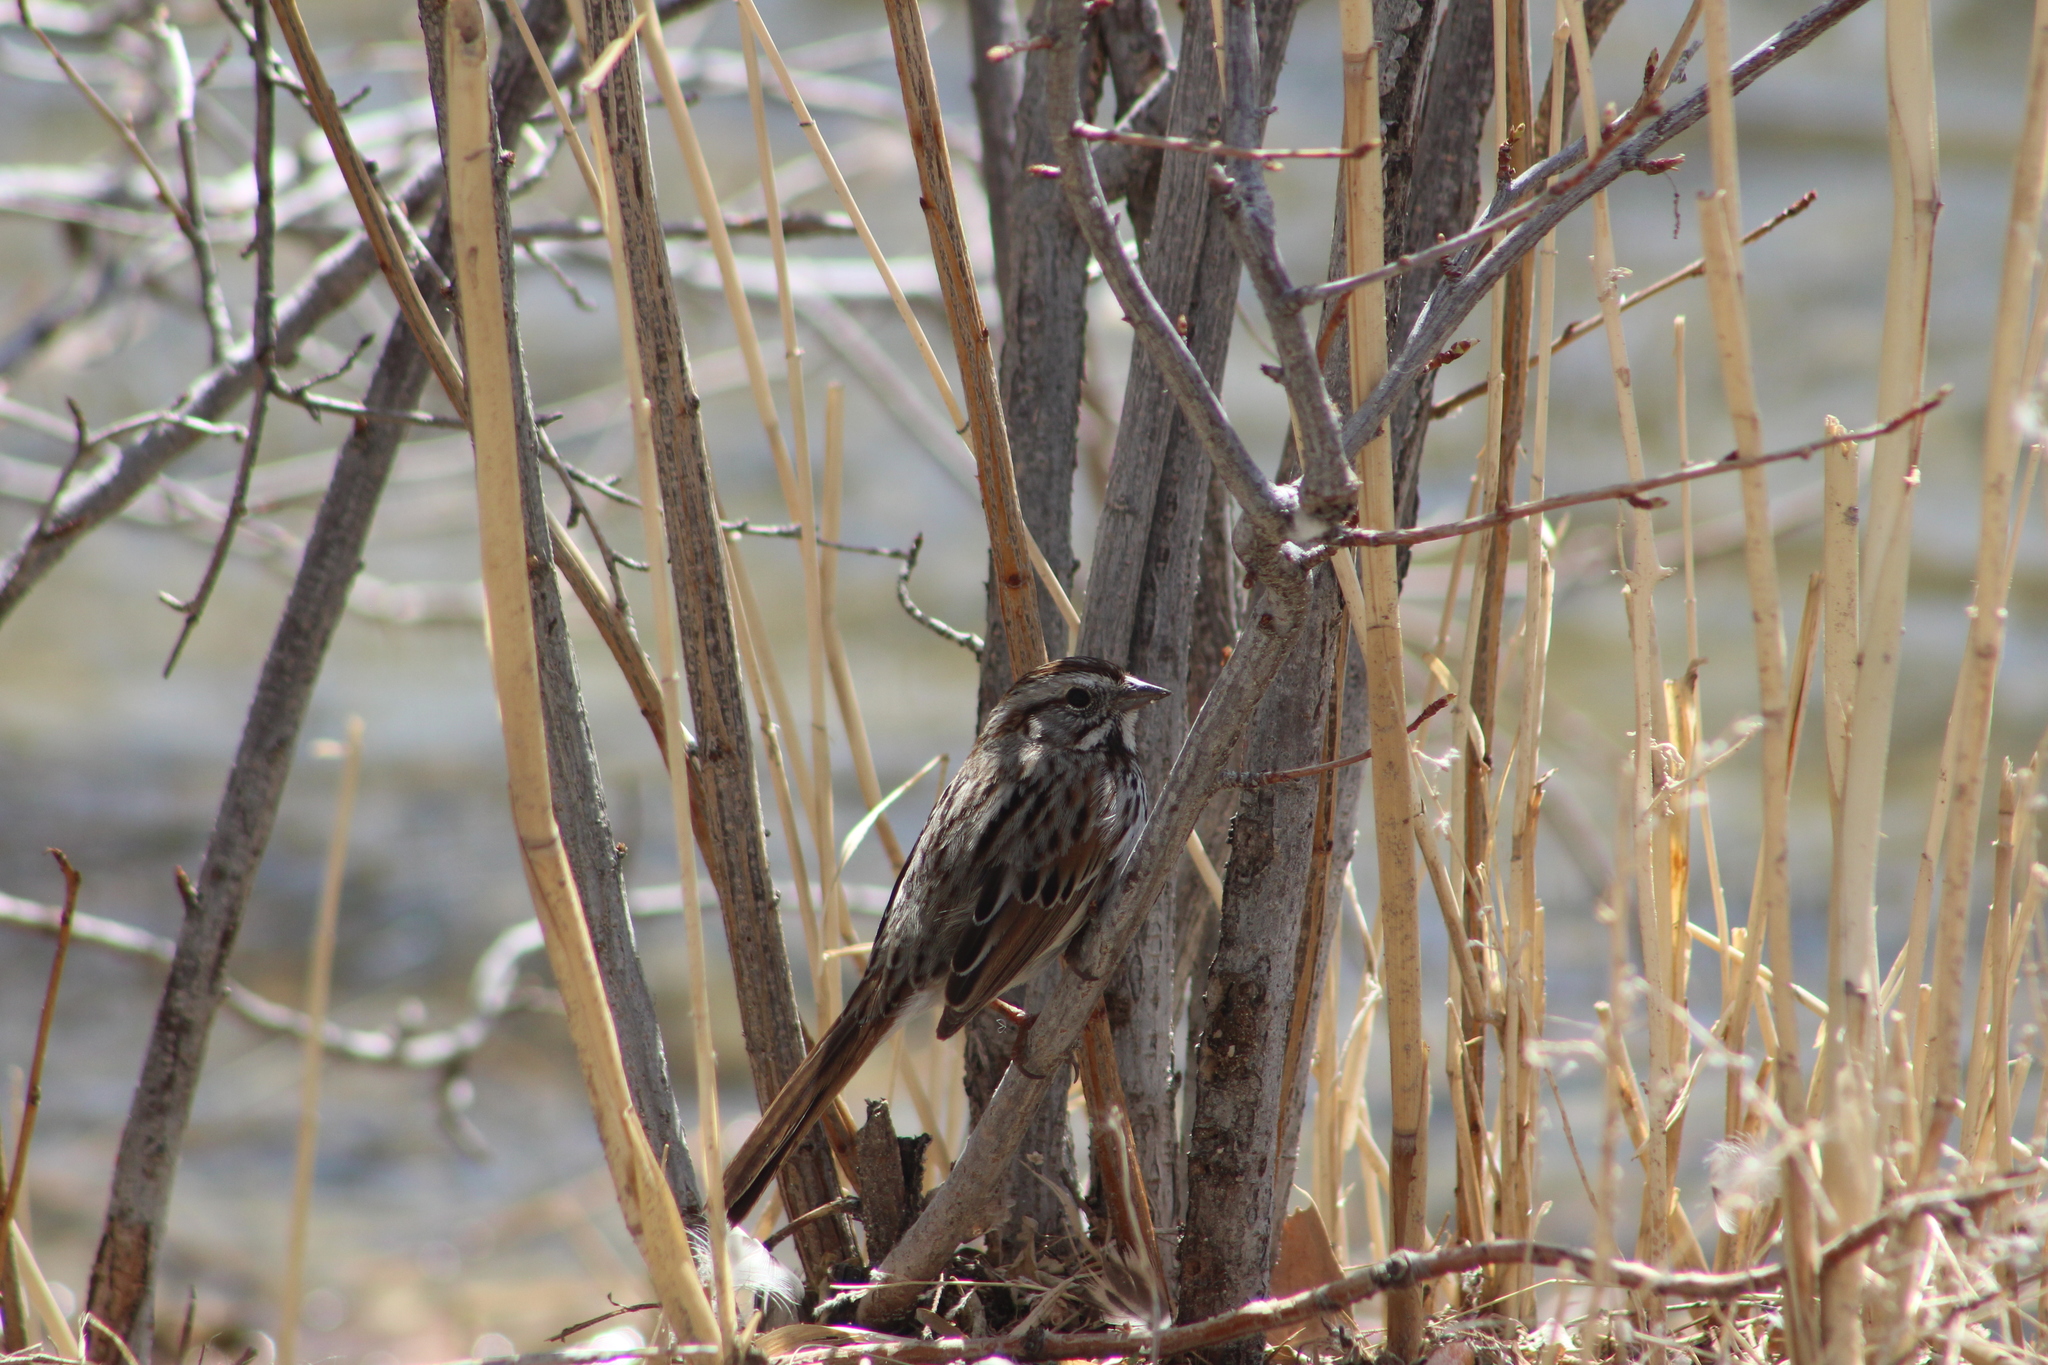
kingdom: Animalia
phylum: Chordata
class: Aves
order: Passeriformes
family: Passerellidae
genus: Melospiza
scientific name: Melospiza melodia
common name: Song sparrow
